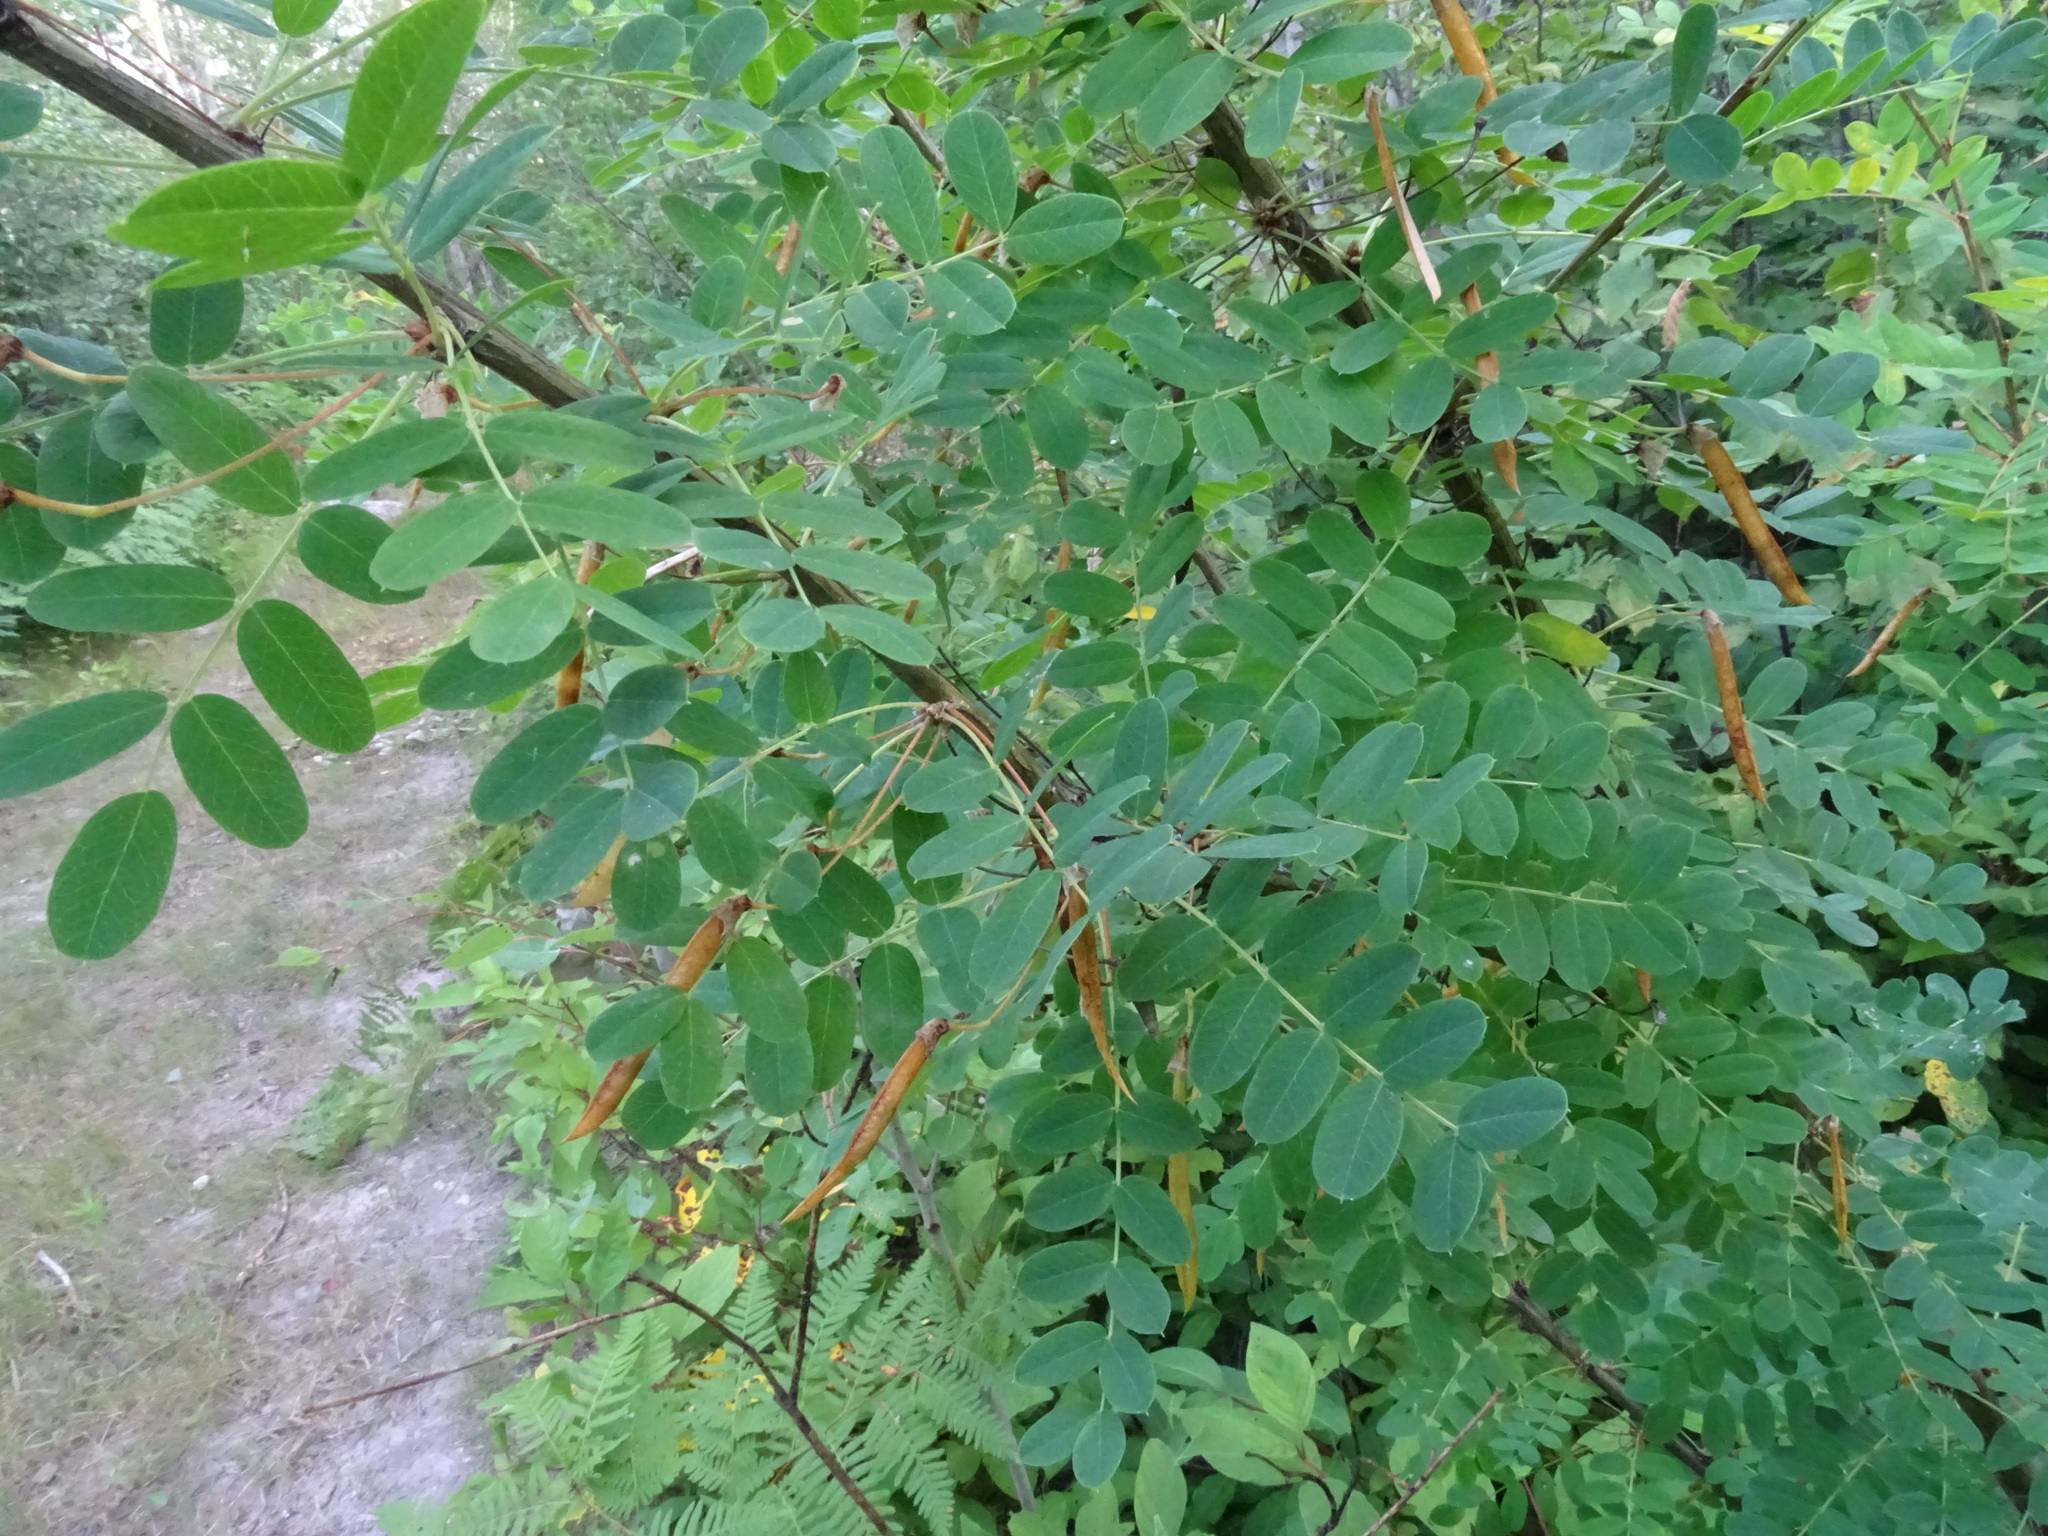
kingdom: Plantae
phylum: Tracheophyta
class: Magnoliopsida
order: Fabales
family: Fabaceae
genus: Caragana
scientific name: Caragana arborescens
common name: Siberian peashrub
